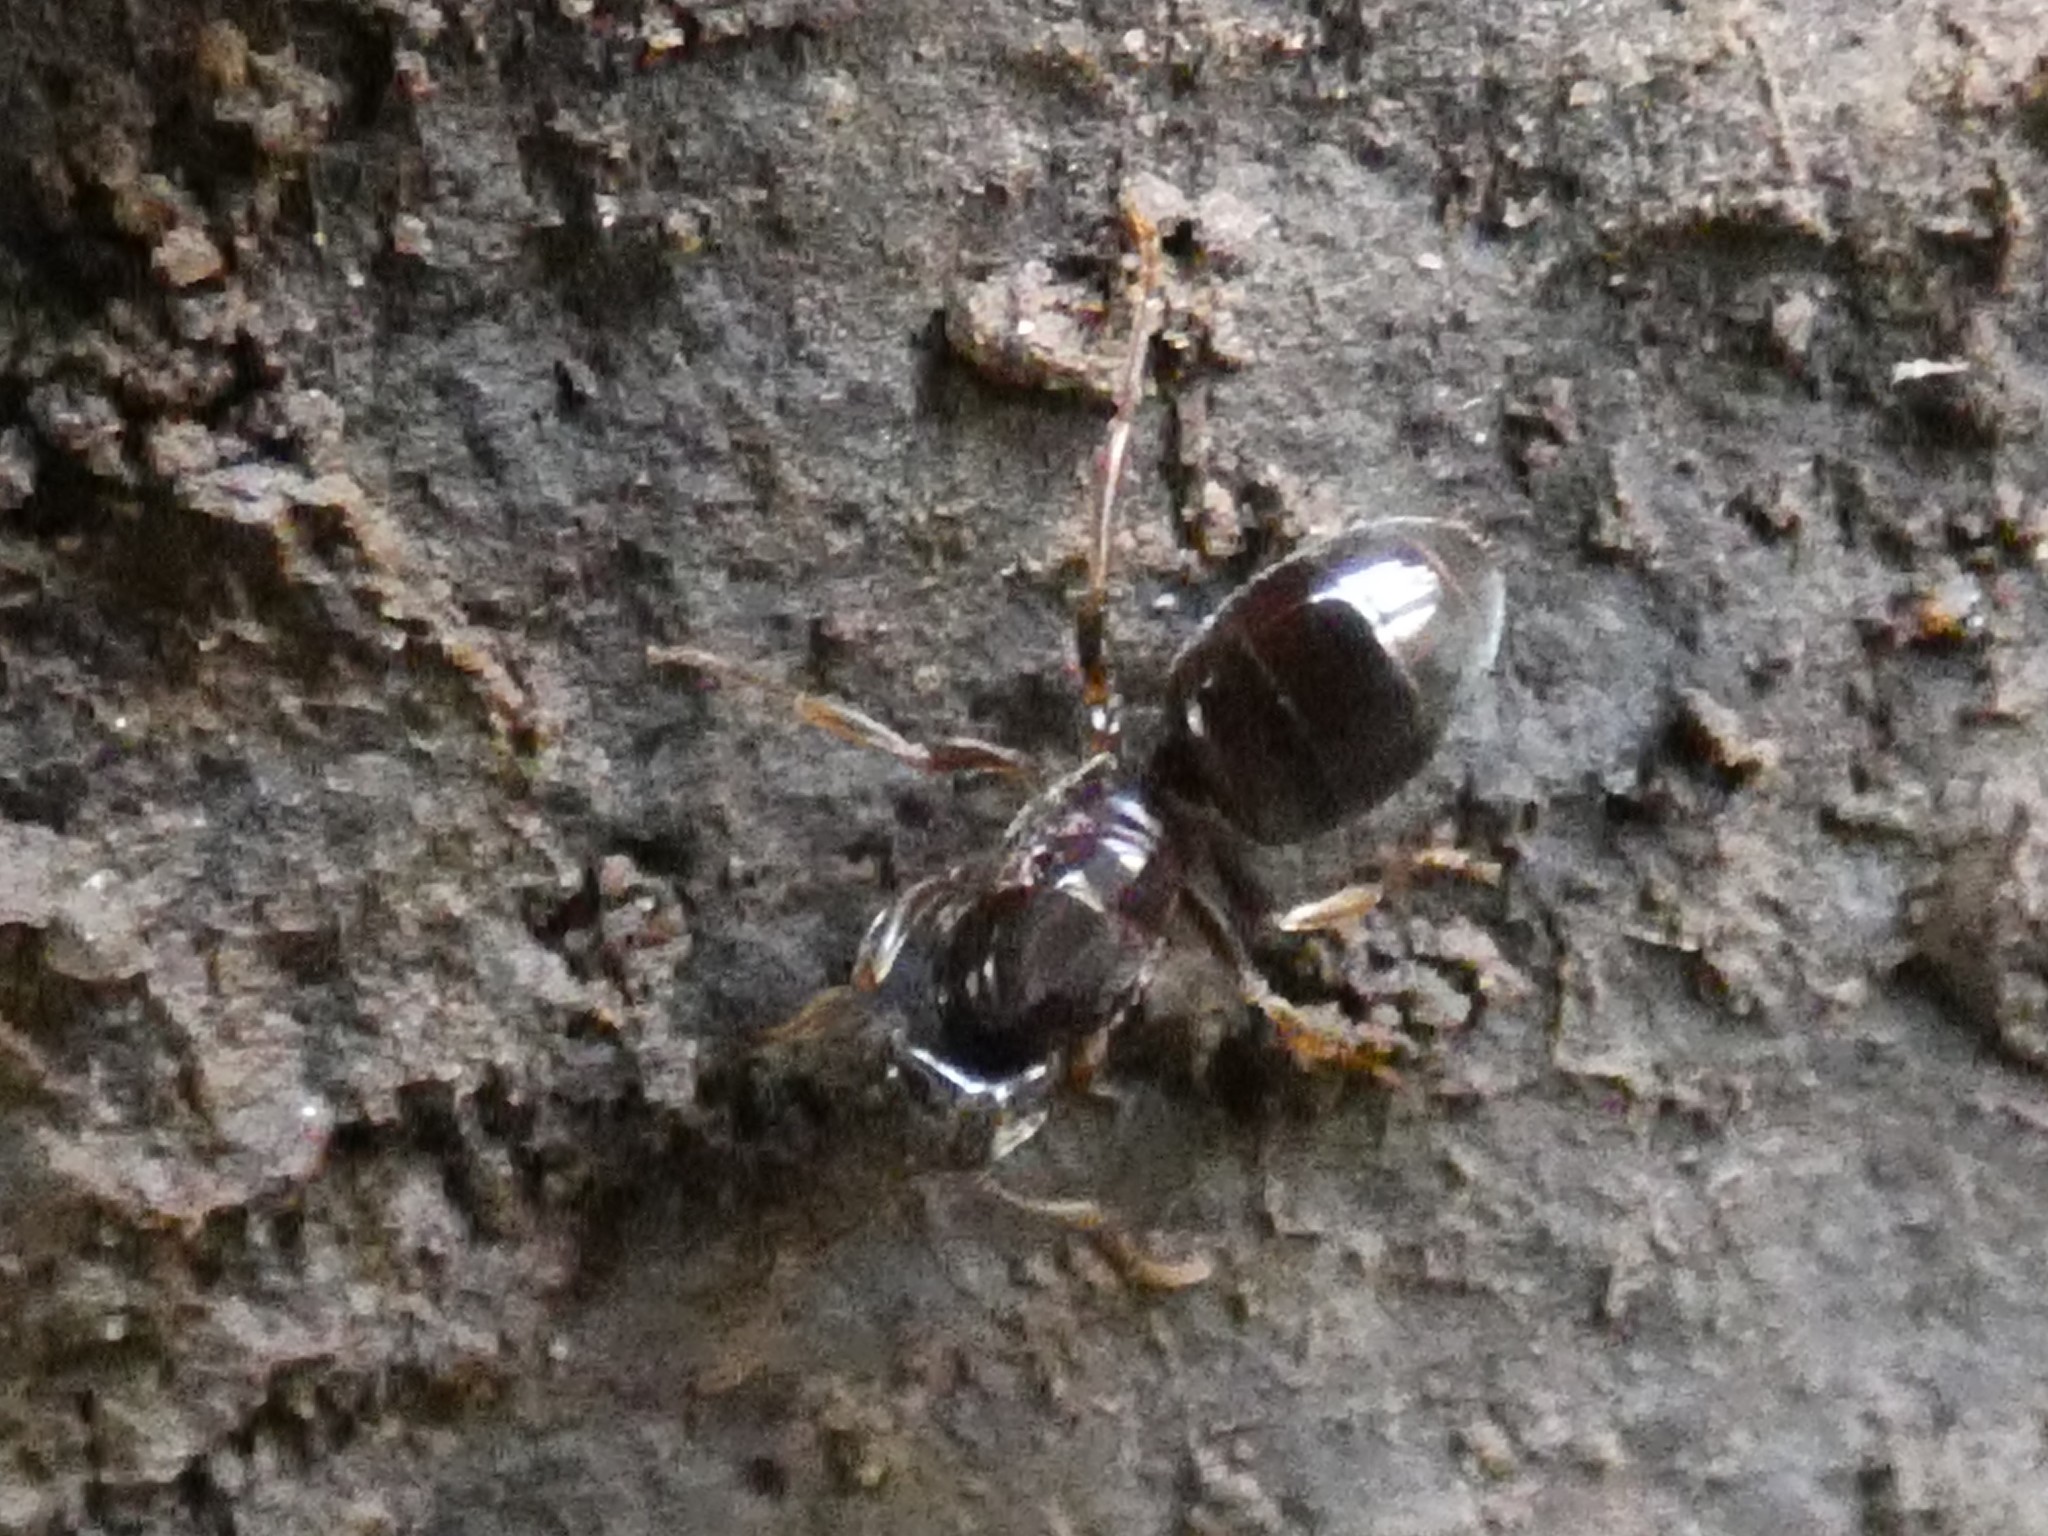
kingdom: Animalia
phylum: Arthropoda
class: Insecta
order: Hymenoptera
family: Formicidae
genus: Lasius
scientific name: Lasius aphidicola
